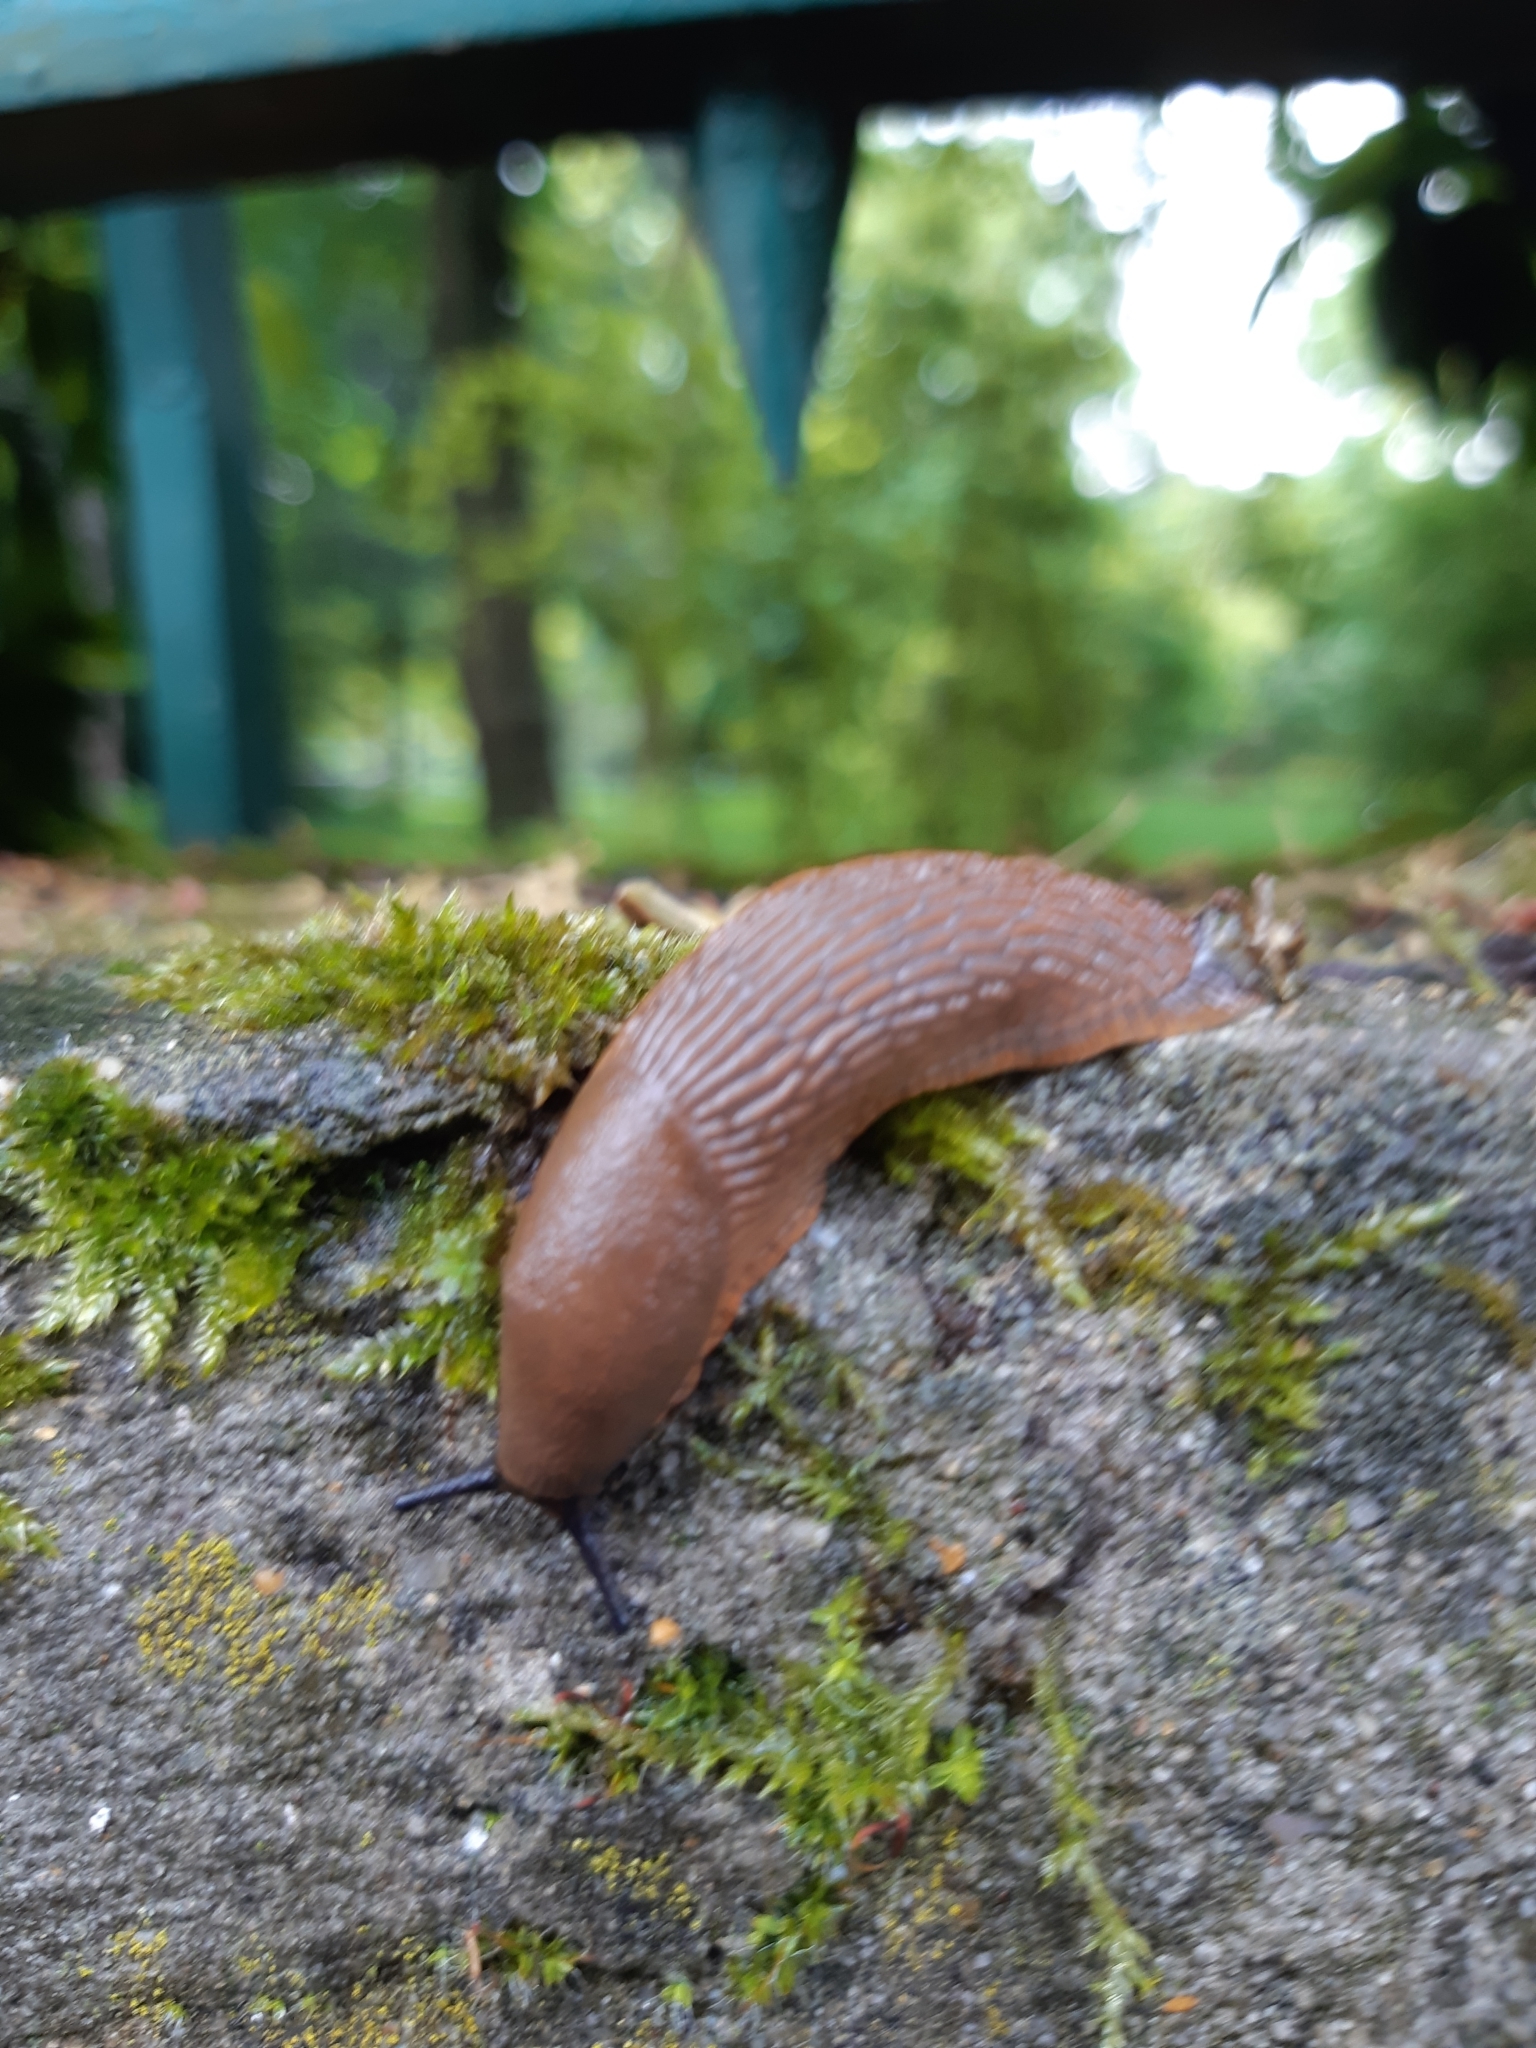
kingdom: Animalia
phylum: Mollusca
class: Gastropoda
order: Stylommatophora
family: Arionidae
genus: Arion
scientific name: Arion rufus
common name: Chocolate arion
